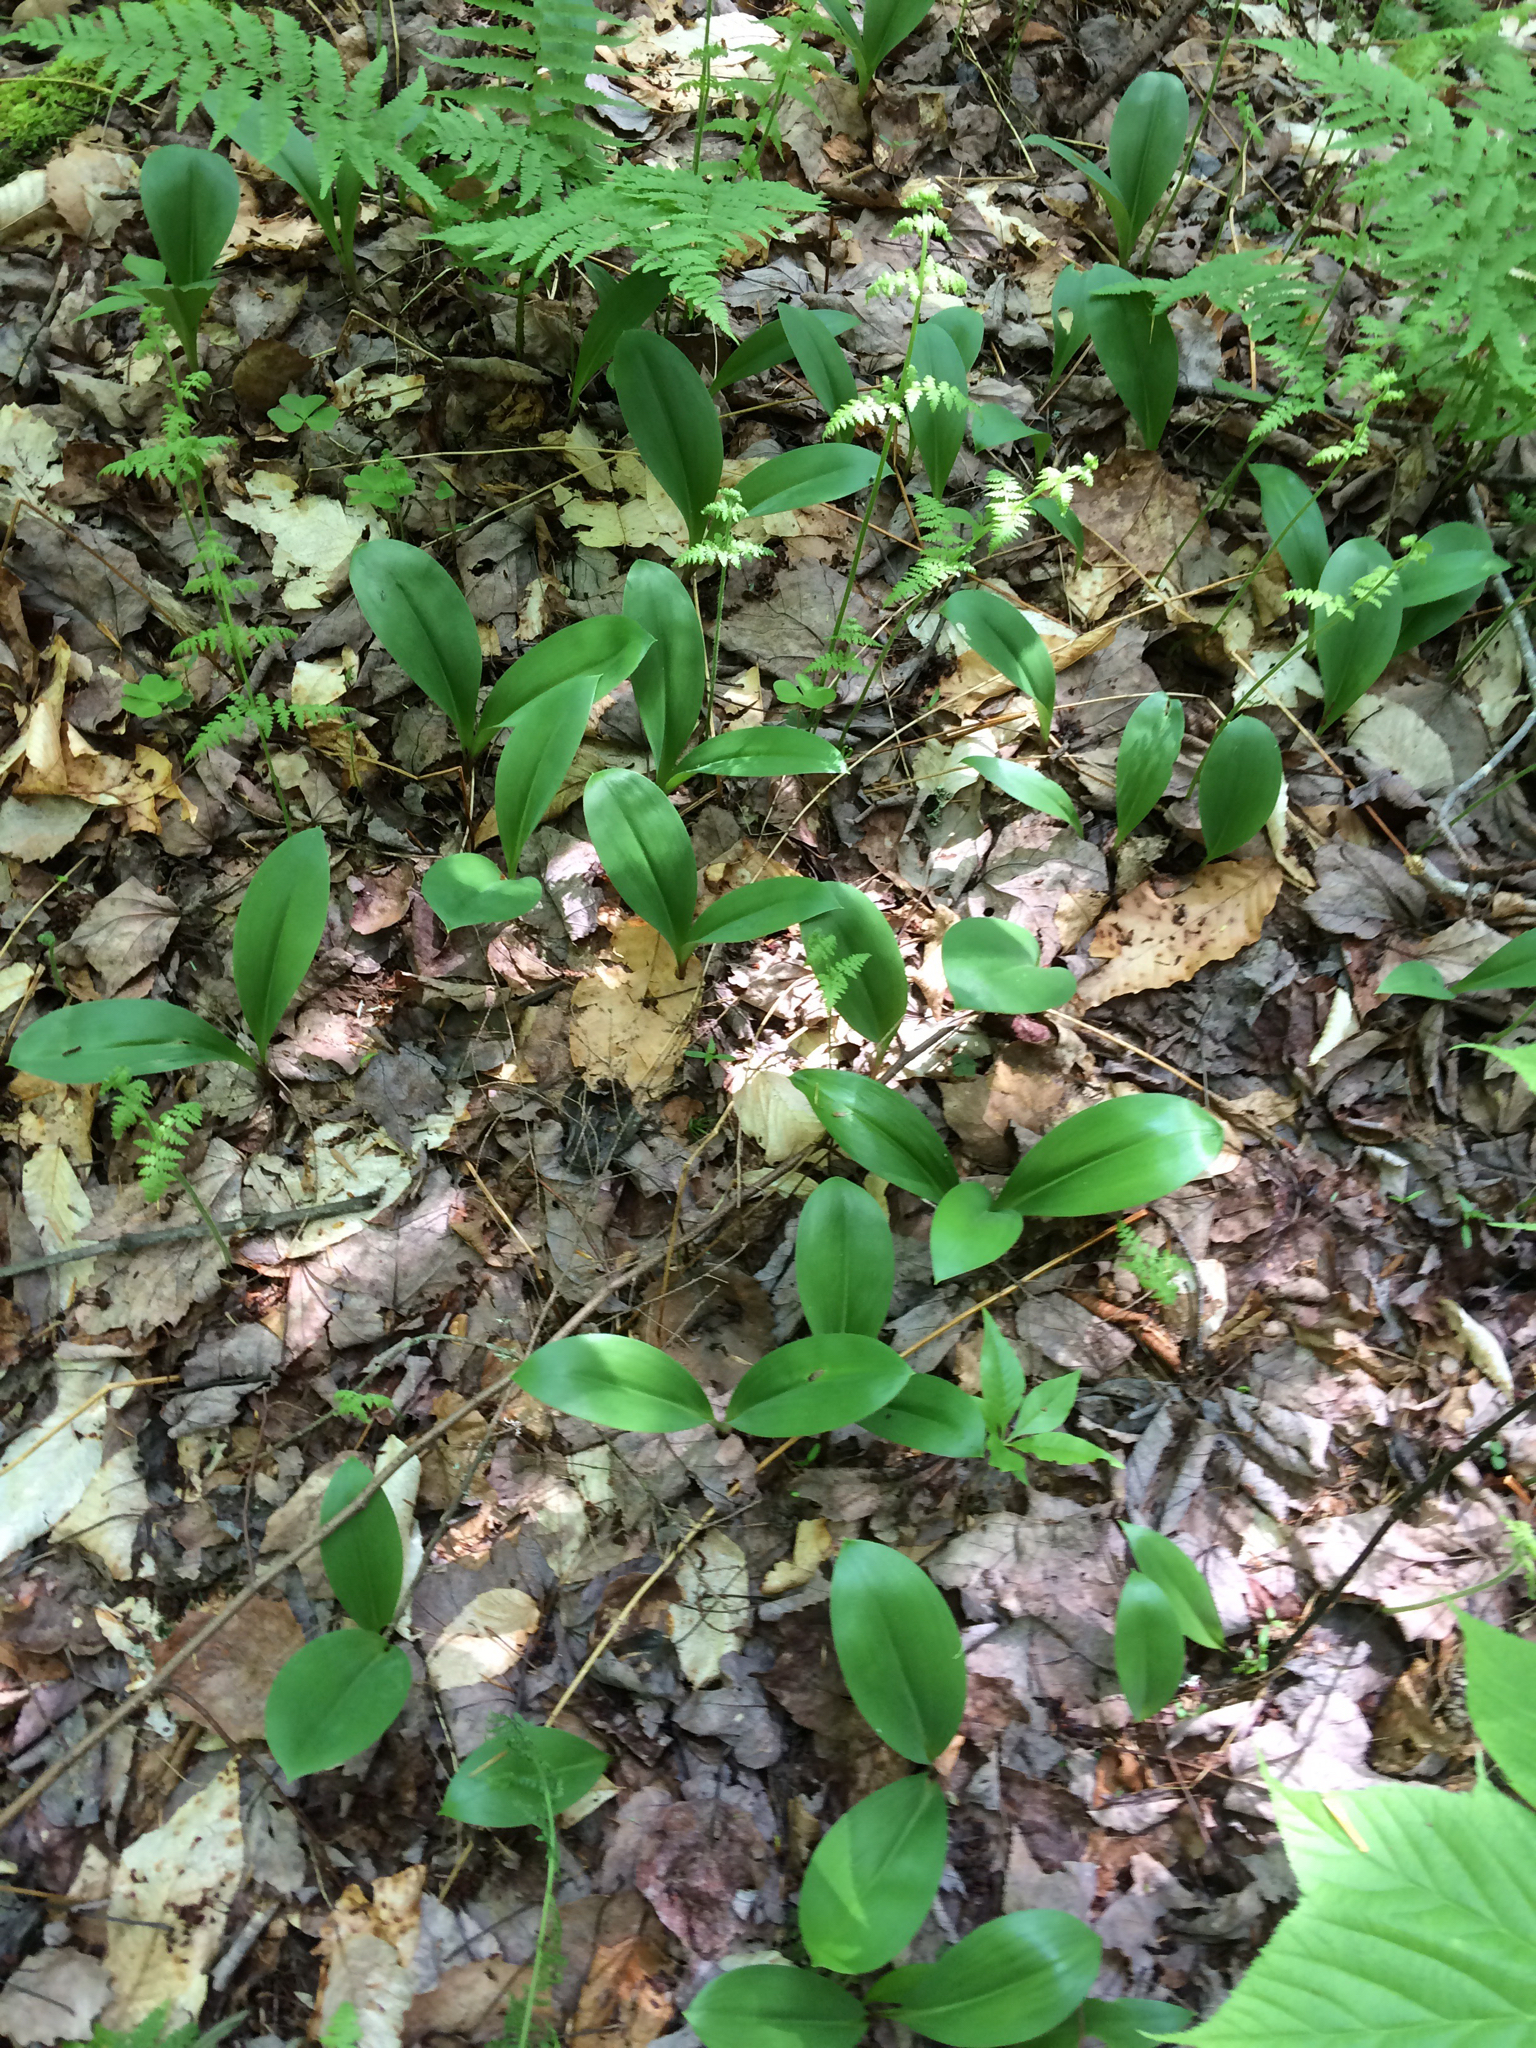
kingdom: Plantae
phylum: Tracheophyta
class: Liliopsida
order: Liliales
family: Liliaceae
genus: Clintonia
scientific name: Clintonia borealis
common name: Yellow clintonia
